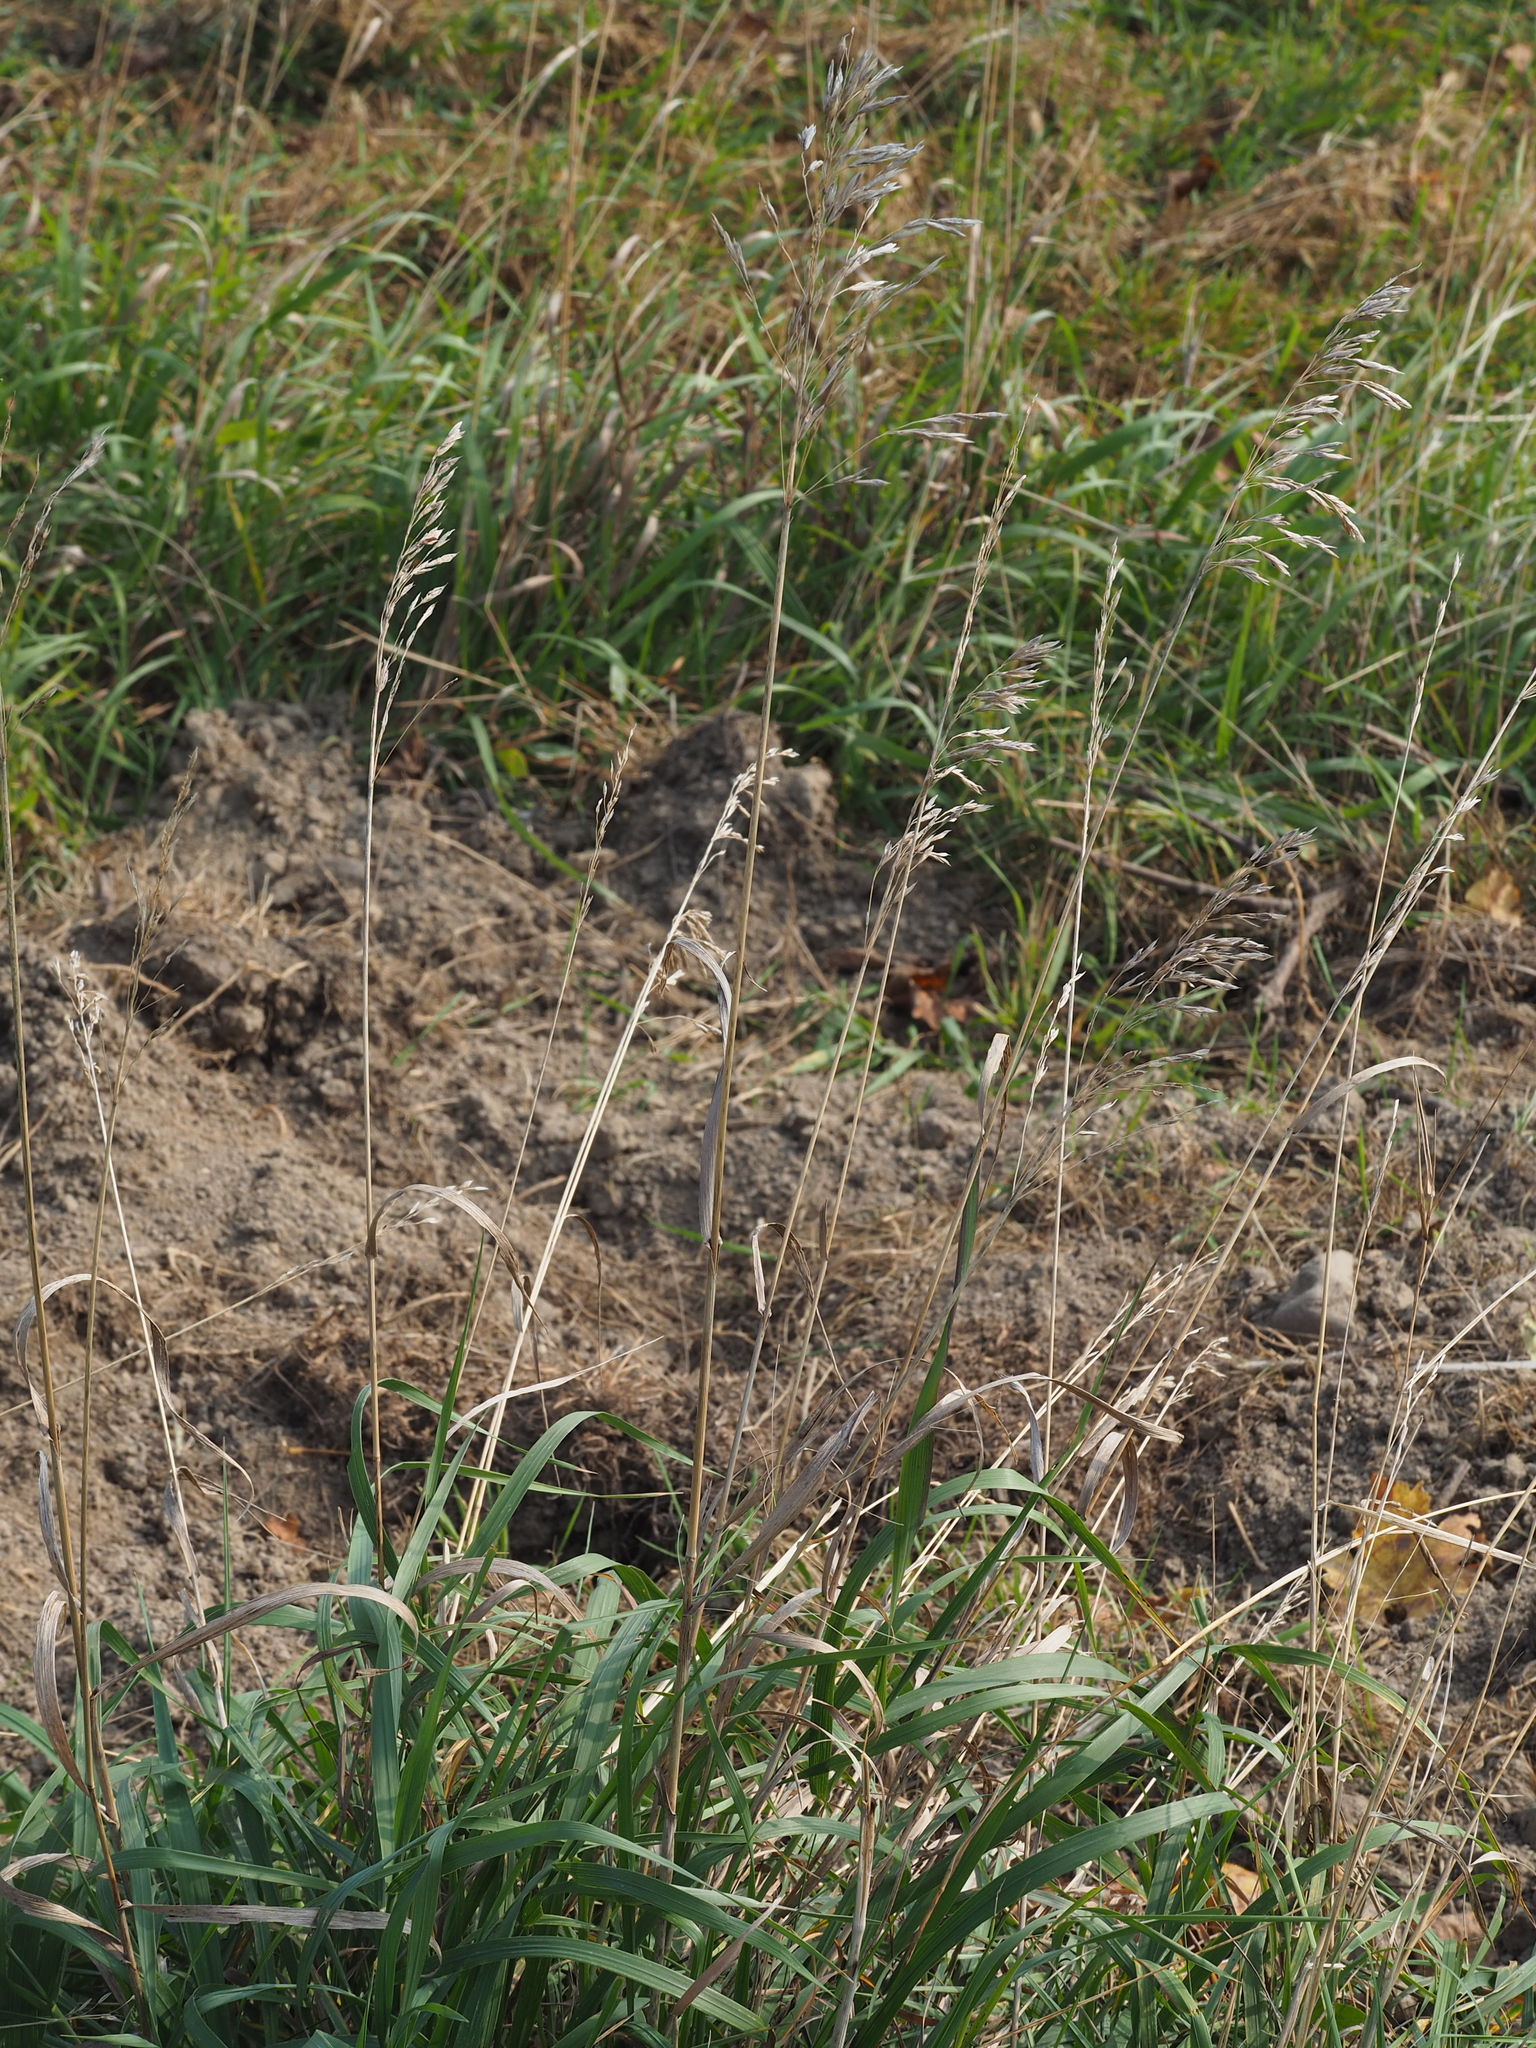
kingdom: Plantae
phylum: Tracheophyta
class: Liliopsida
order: Poales
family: Poaceae
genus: Bromus
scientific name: Bromus inermis
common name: Smooth brome
